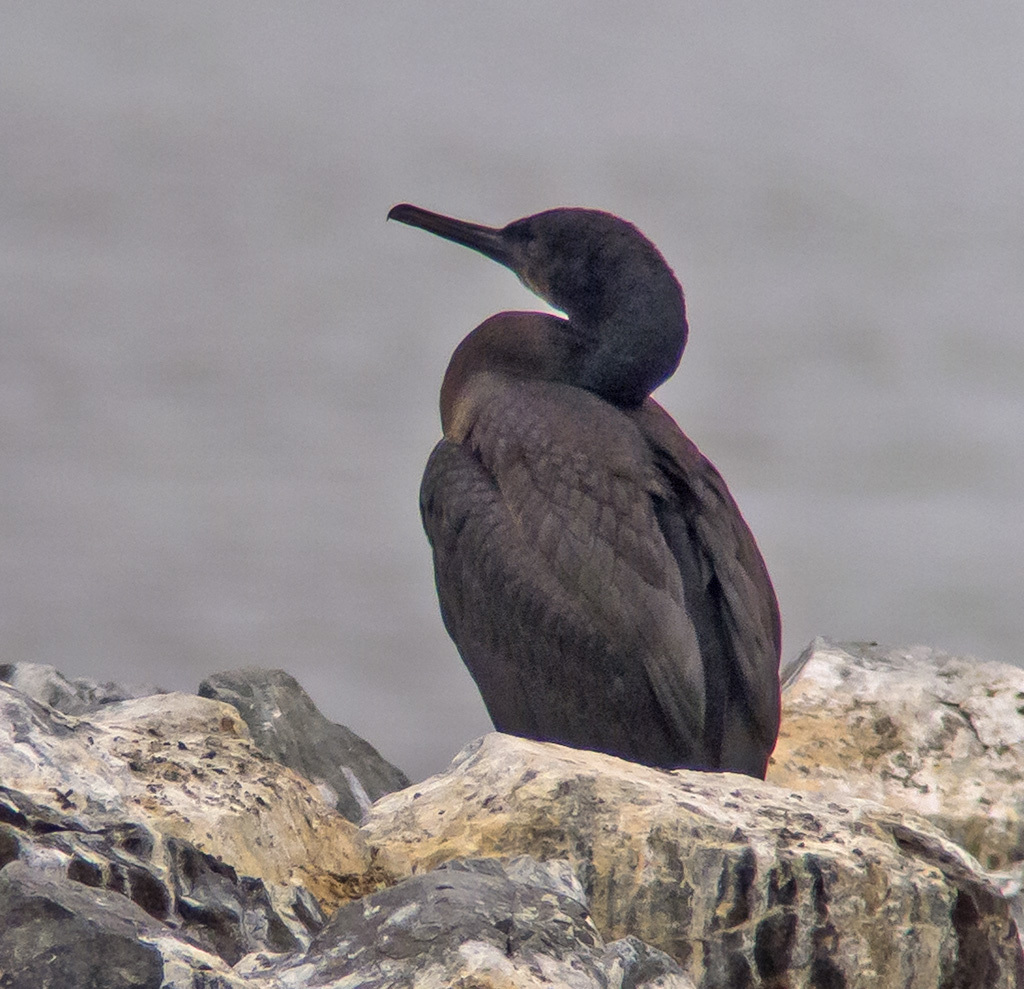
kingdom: Animalia
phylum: Chordata
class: Aves
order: Suliformes
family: Phalacrocoracidae
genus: Urile
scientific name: Urile penicillatus
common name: Brandt's cormorant
